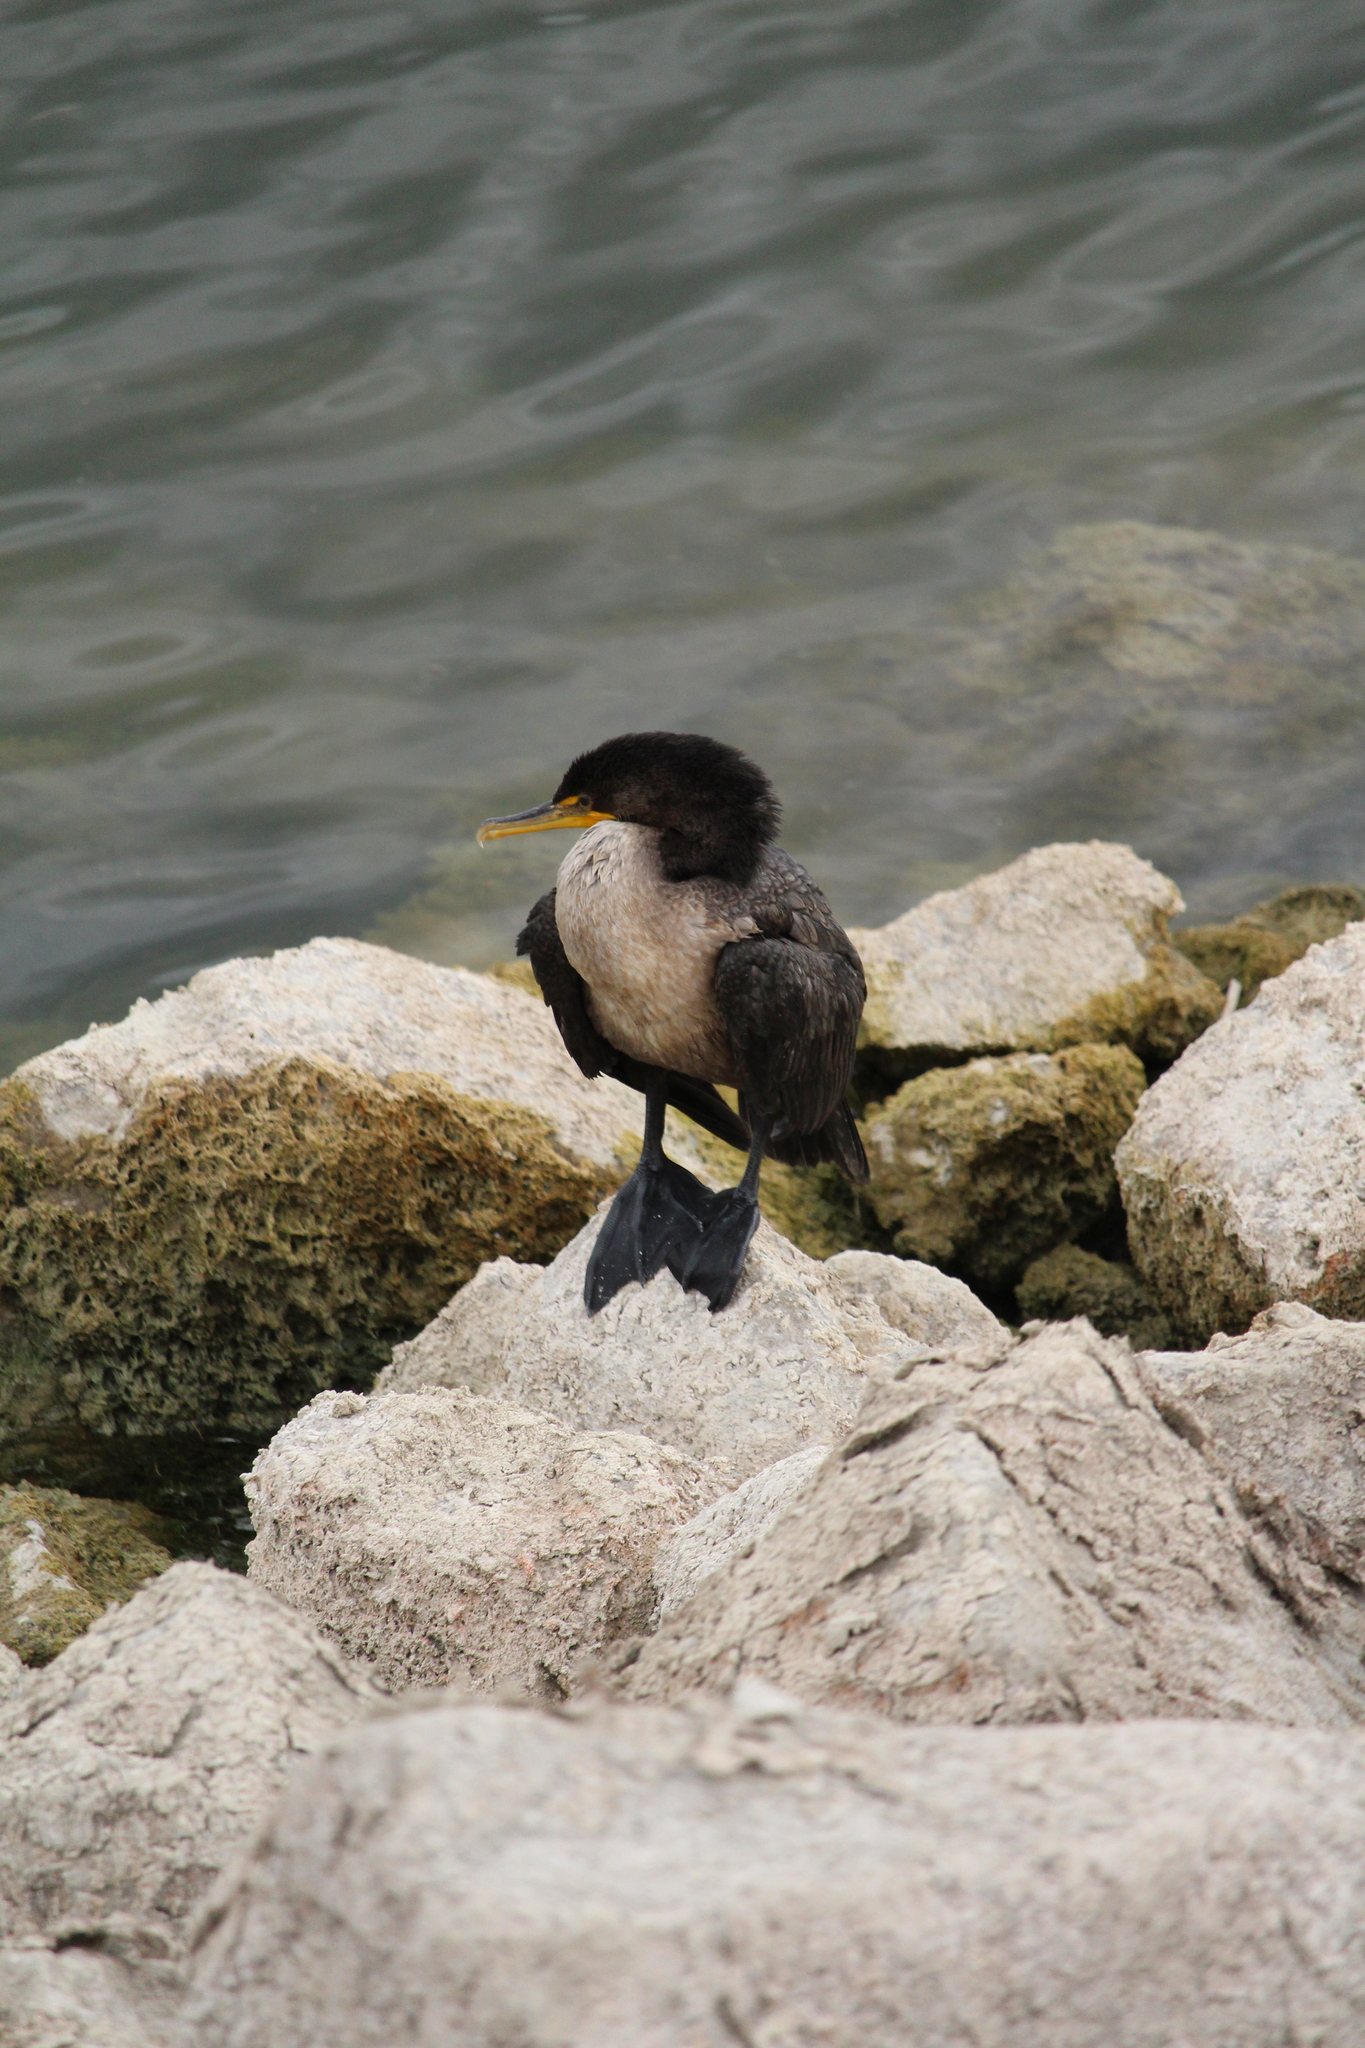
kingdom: Animalia
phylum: Chordata
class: Aves
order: Suliformes
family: Phalacrocoracidae
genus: Phalacrocorax
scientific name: Phalacrocorax auritus
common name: Double-crested cormorant
